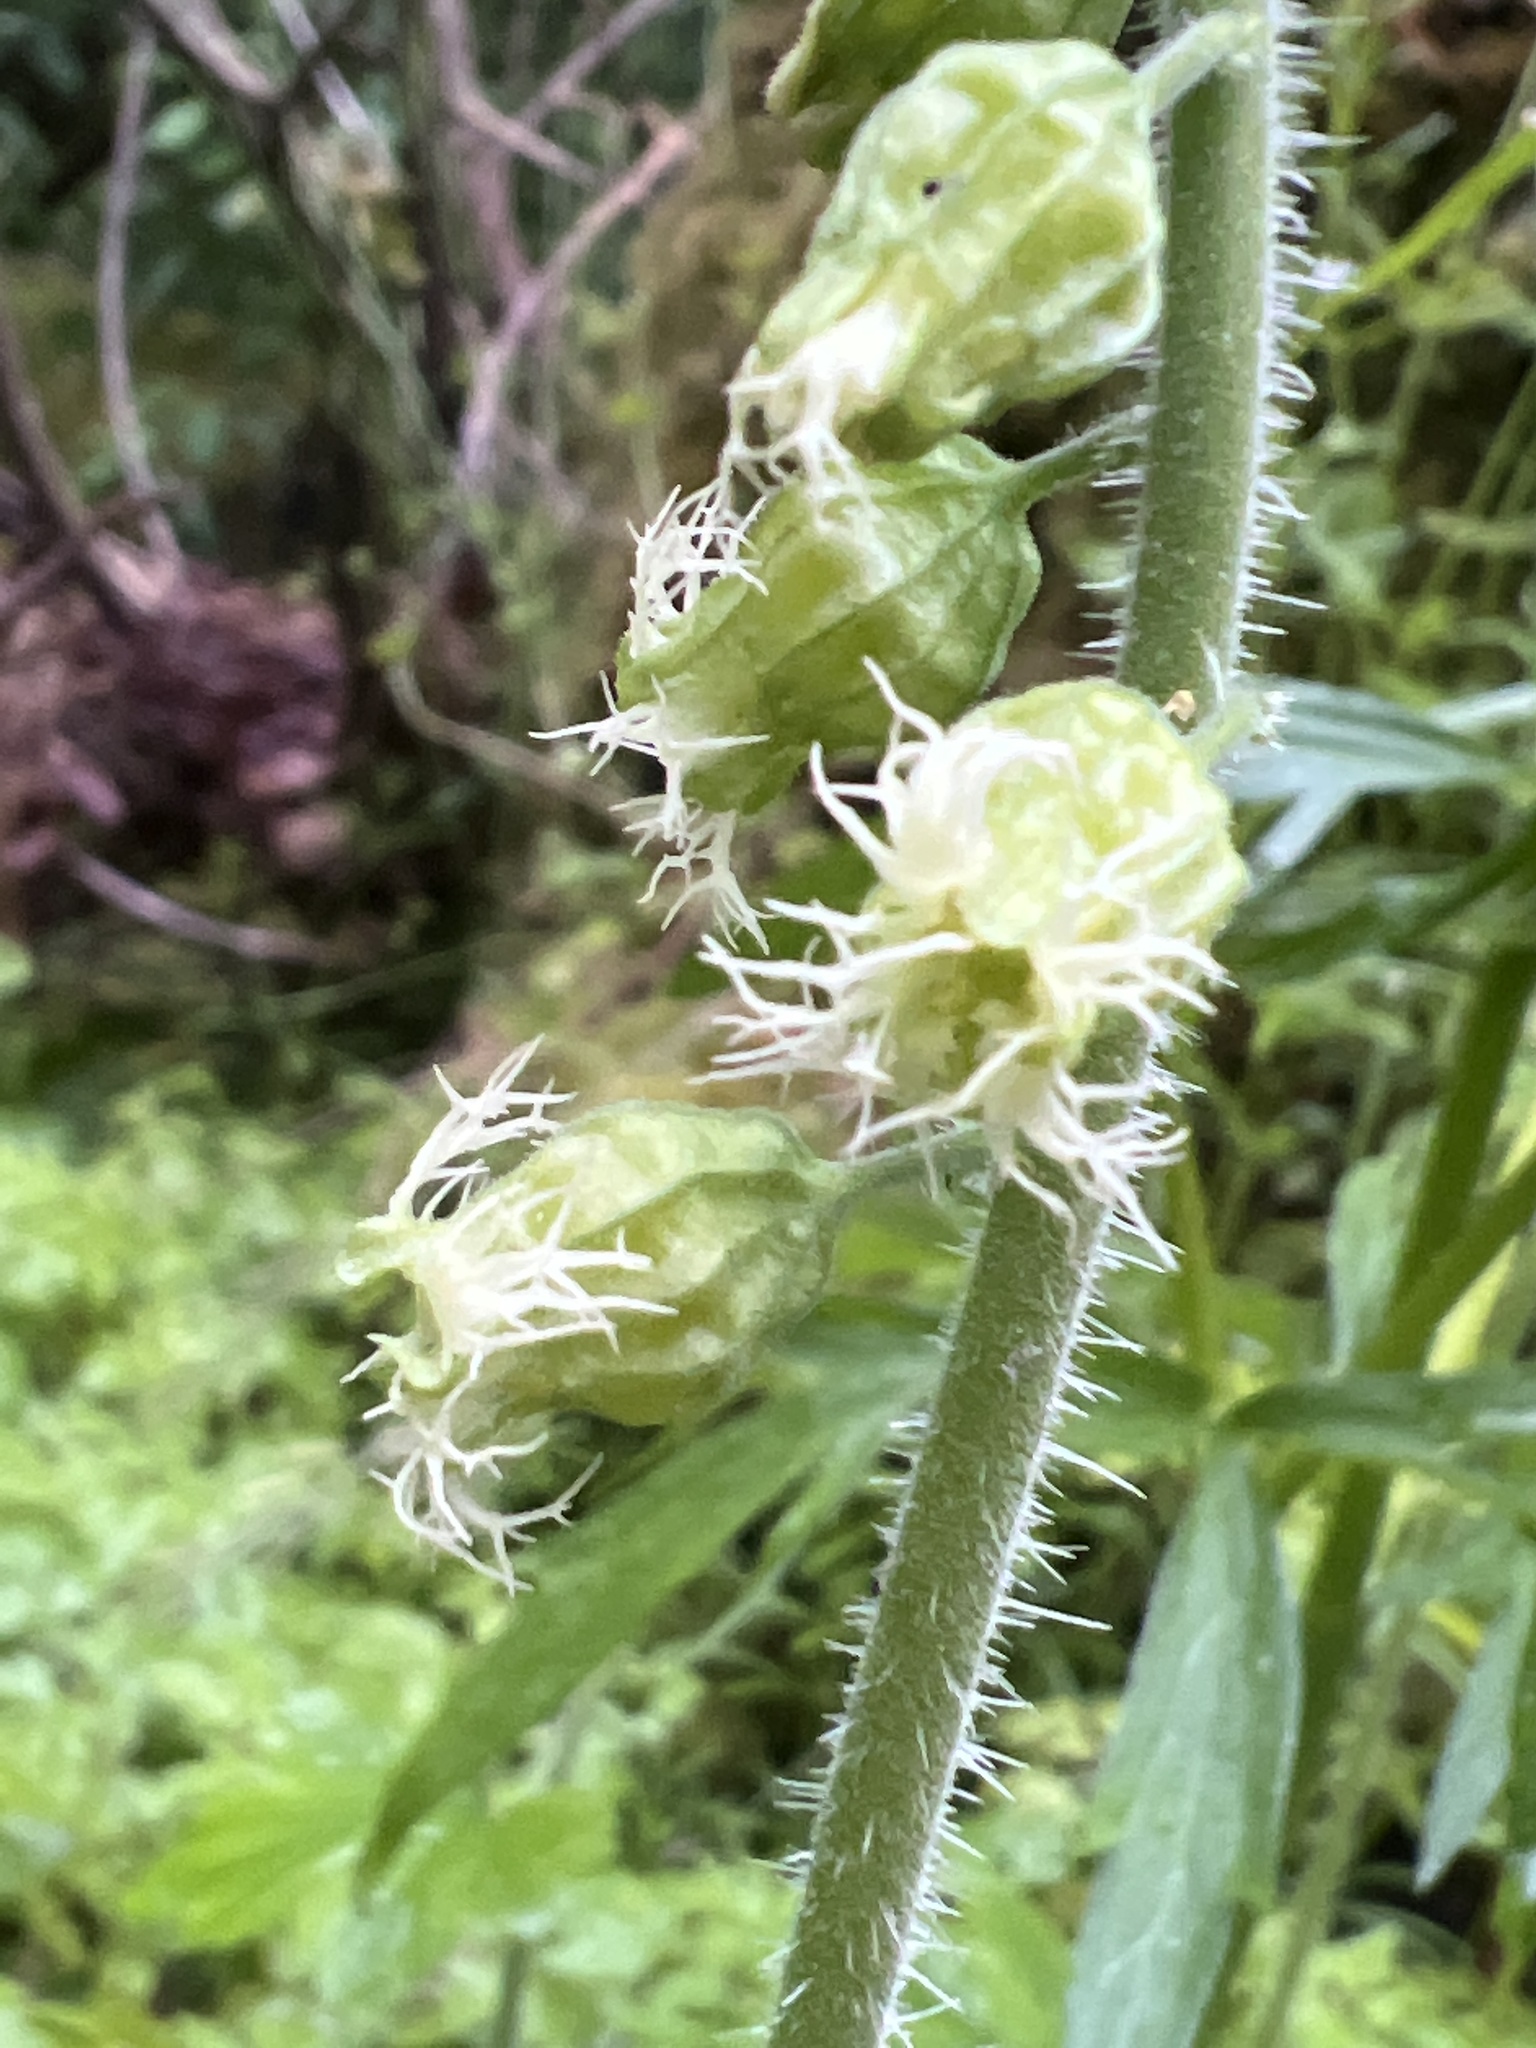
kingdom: Plantae
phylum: Tracheophyta
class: Magnoliopsida
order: Saxifragales
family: Saxifragaceae
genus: Tellima
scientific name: Tellima grandiflora
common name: Fringecups
